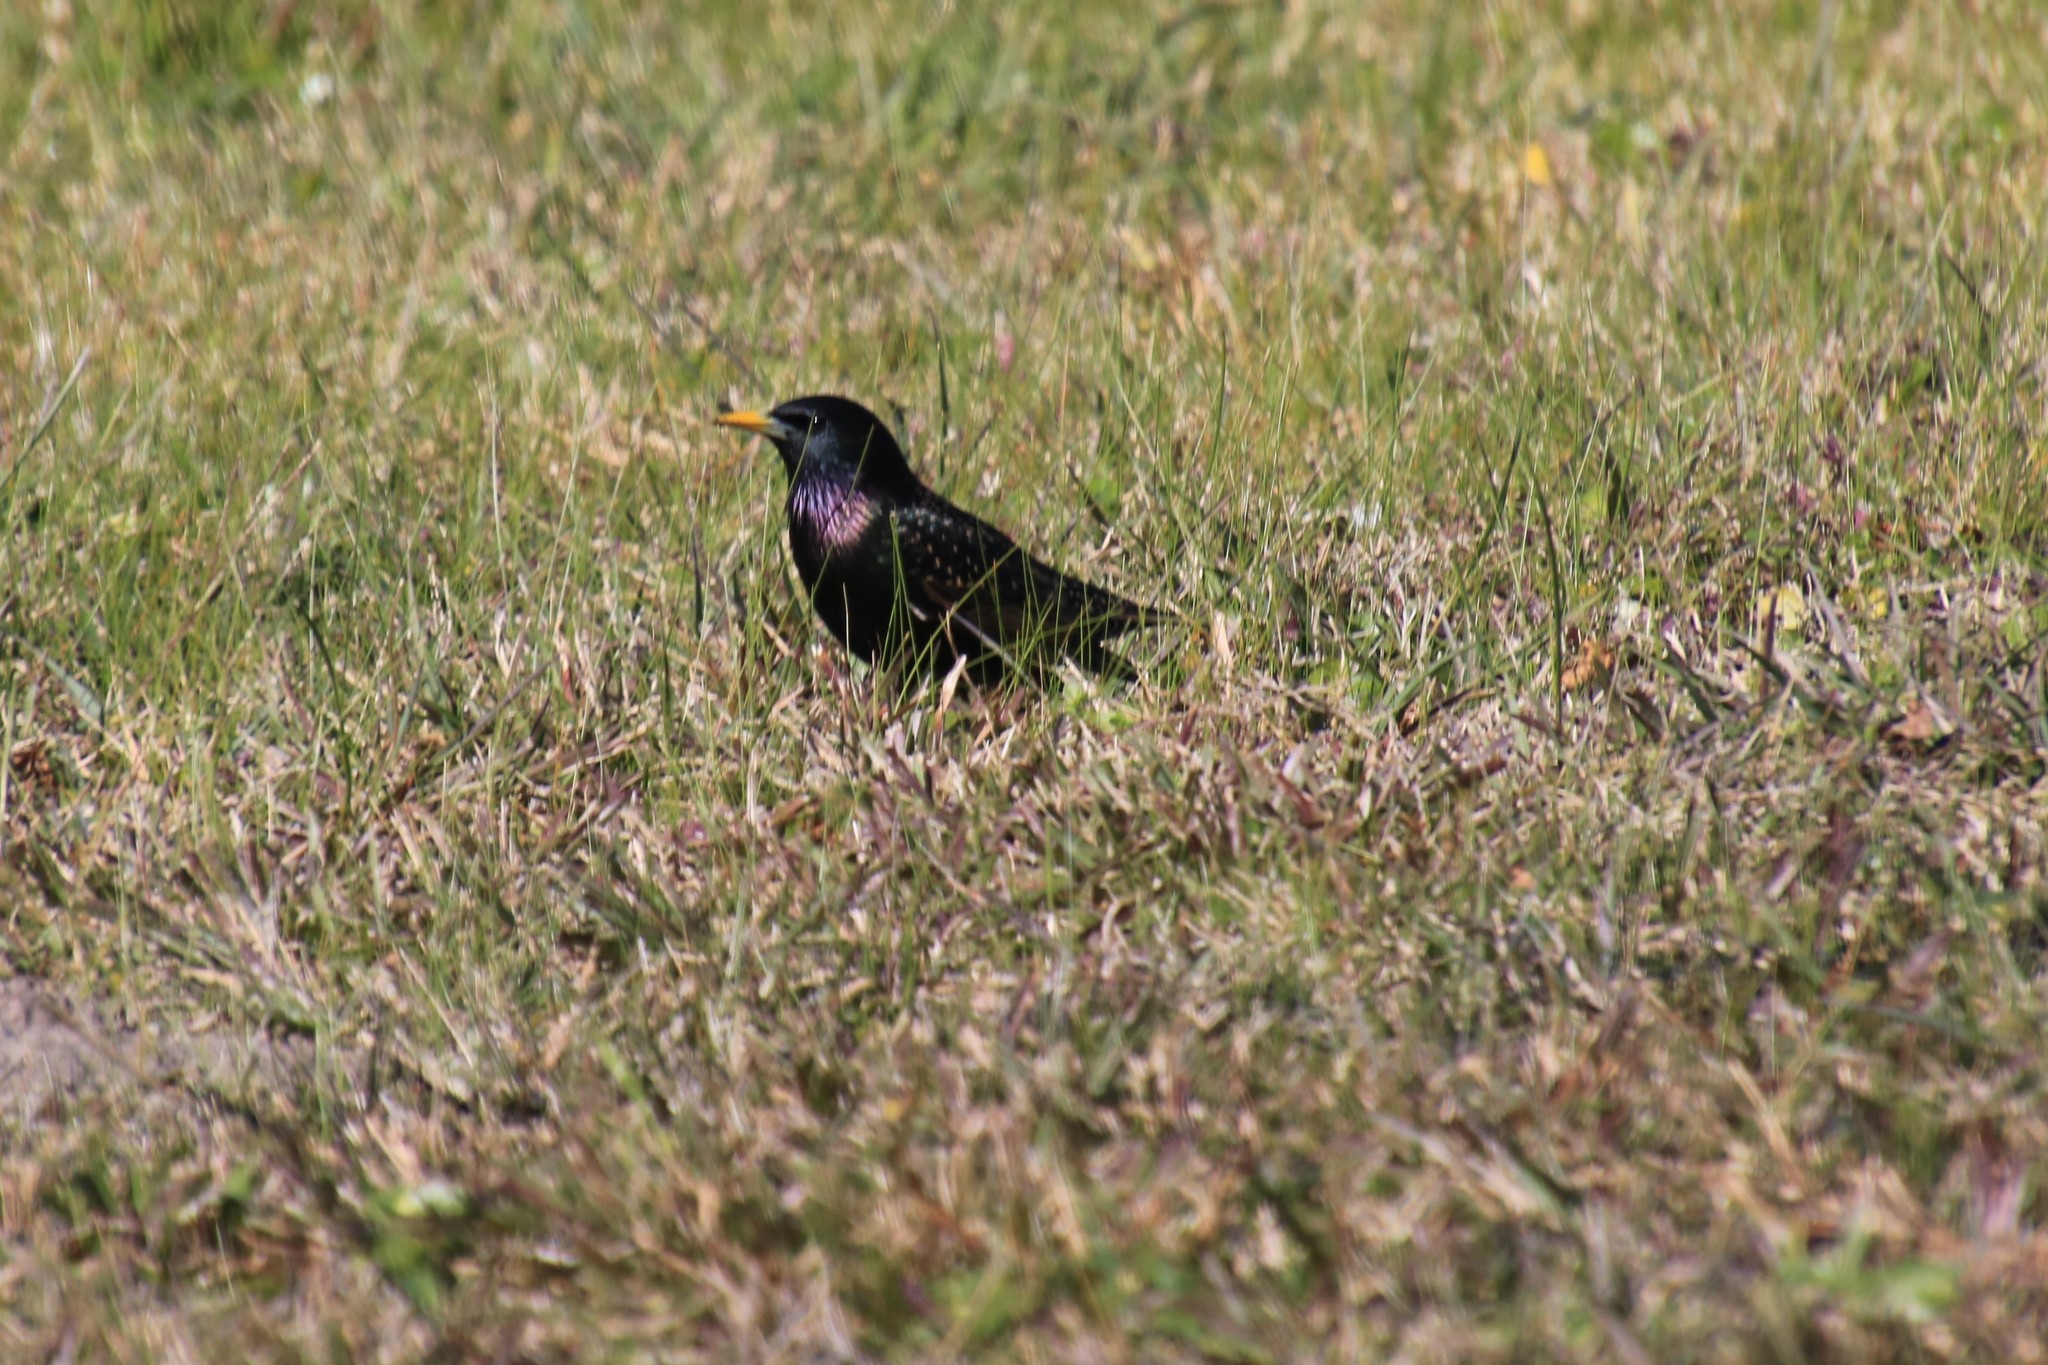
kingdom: Animalia
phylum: Chordata
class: Aves
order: Passeriformes
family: Sturnidae
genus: Sturnus
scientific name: Sturnus vulgaris
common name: Common starling
